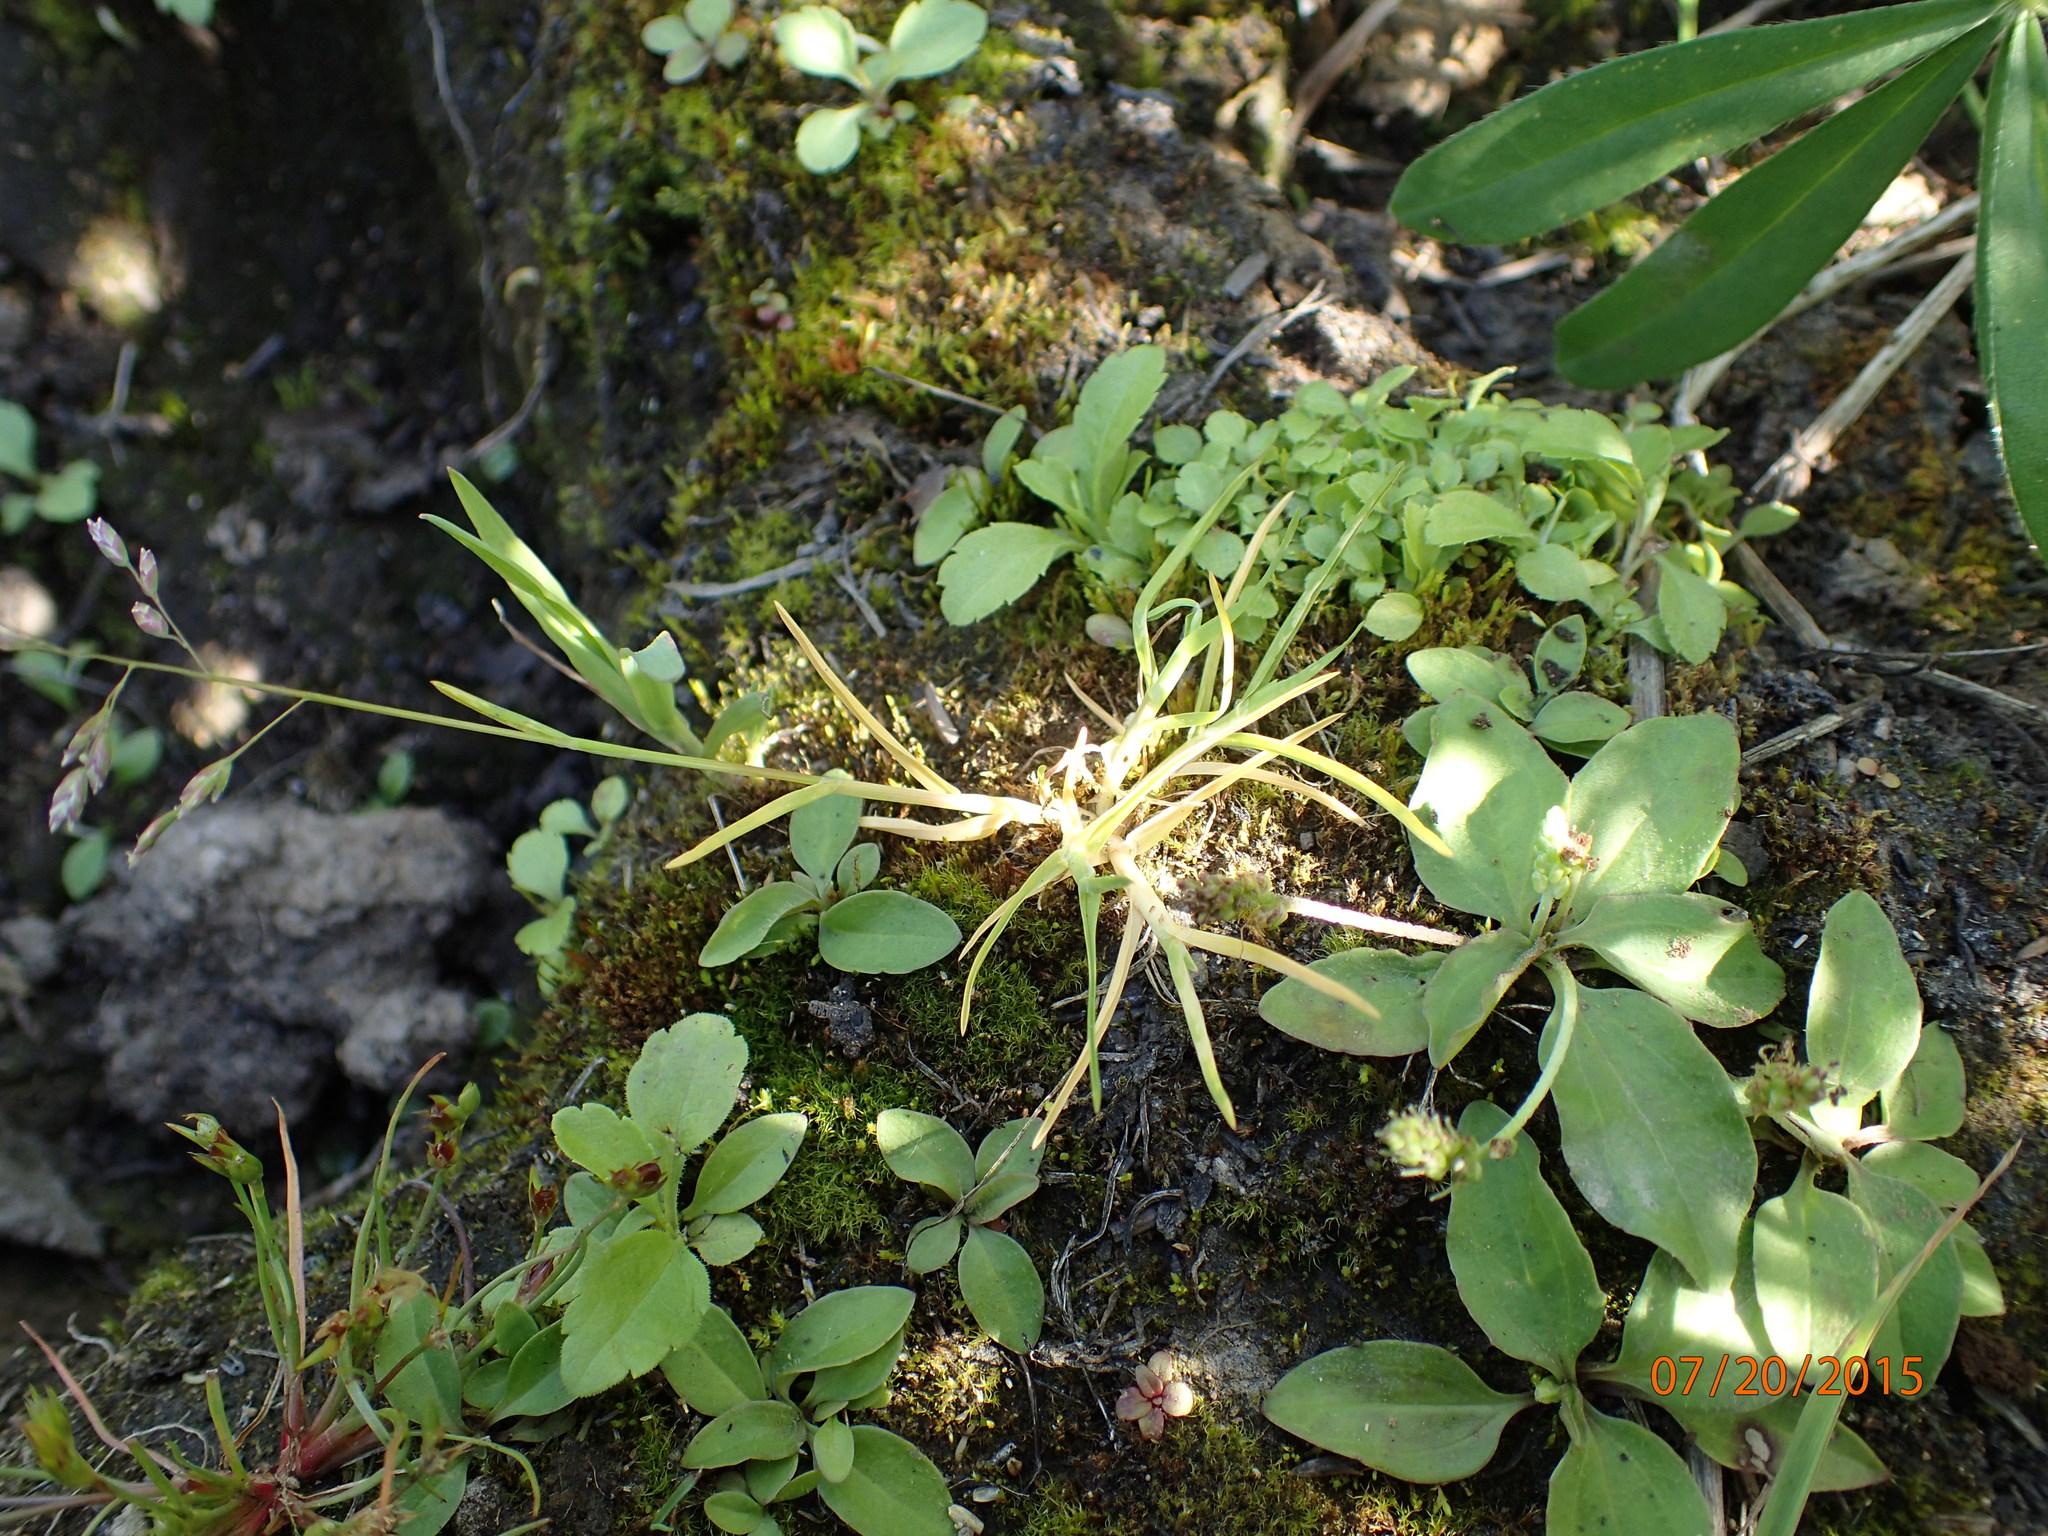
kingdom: Plantae
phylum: Tracheophyta
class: Liliopsida
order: Poales
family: Poaceae
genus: Poa
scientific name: Poa annua
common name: Annual bluegrass
